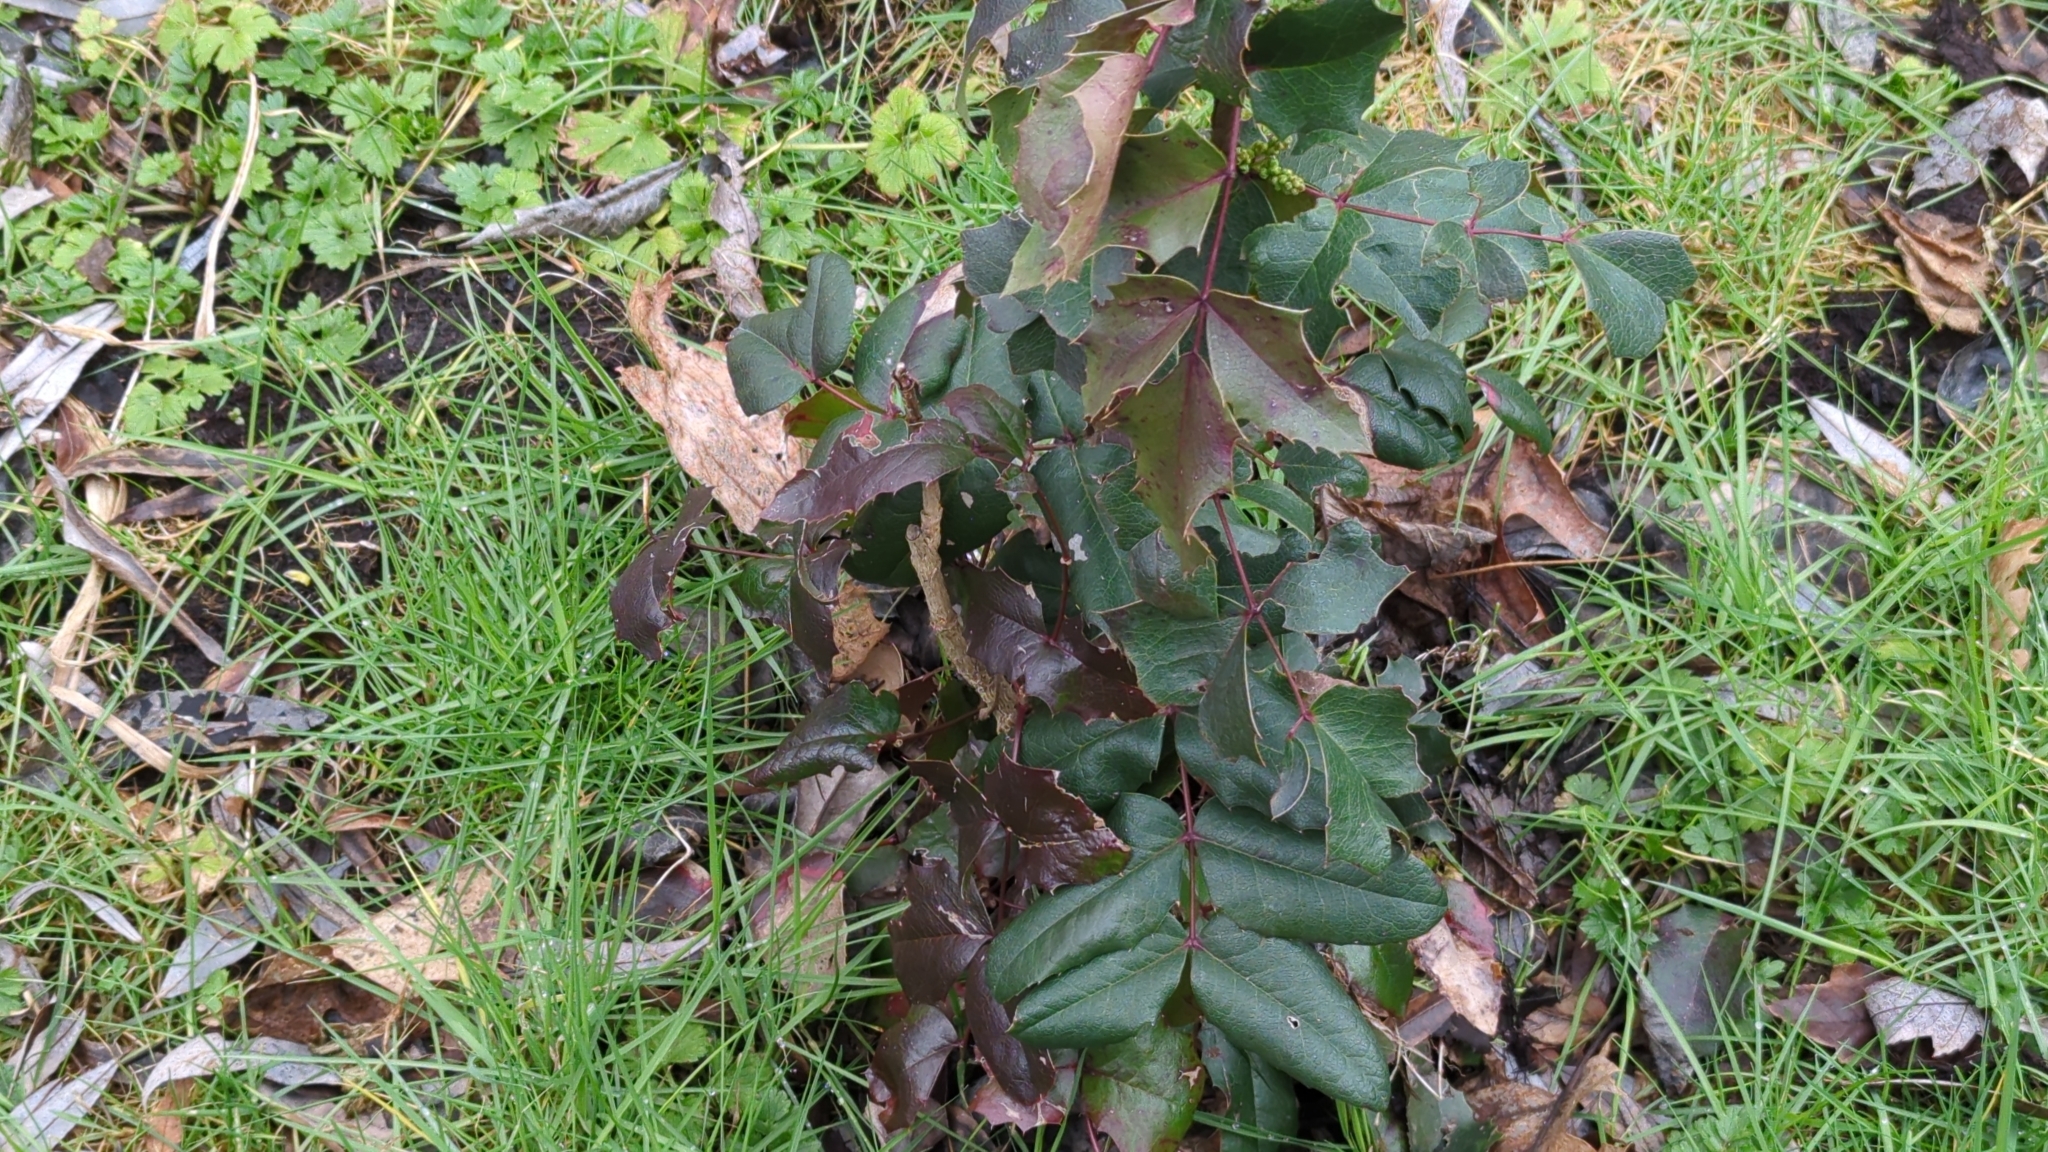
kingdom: Plantae
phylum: Tracheophyta
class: Magnoliopsida
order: Ranunculales
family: Berberidaceae
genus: Mahonia
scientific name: Mahonia aquifolium
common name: Oregon-grape
